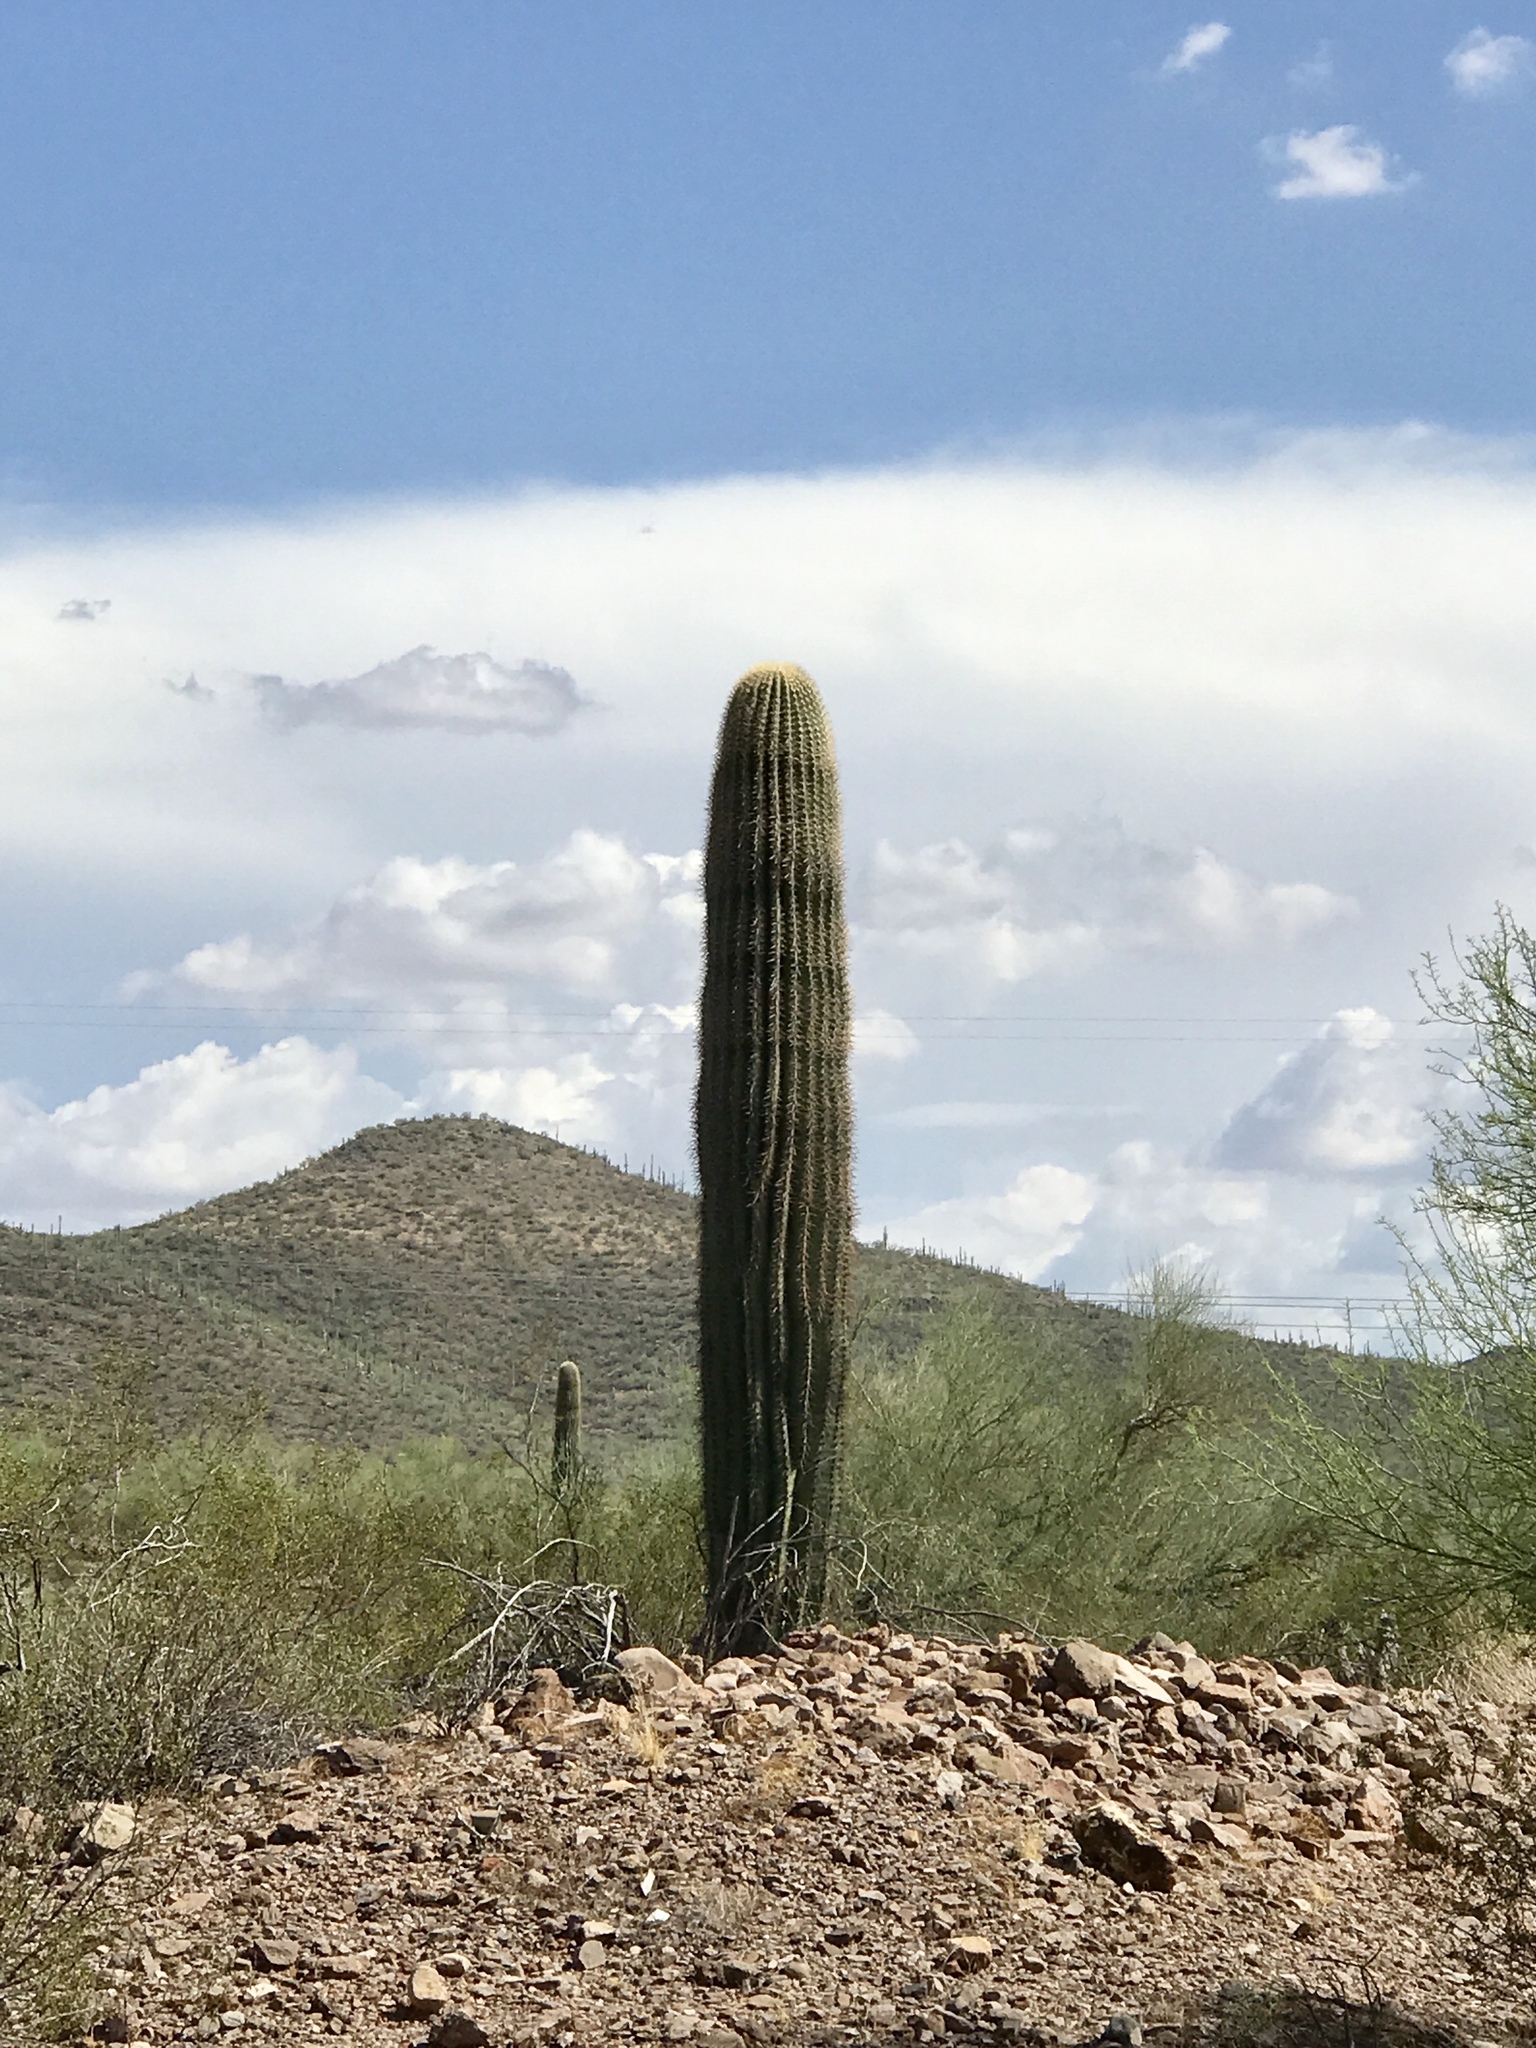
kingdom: Plantae
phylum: Tracheophyta
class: Magnoliopsida
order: Caryophyllales
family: Cactaceae
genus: Carnegiea
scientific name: Carnegiea gigantea
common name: Saguaro
